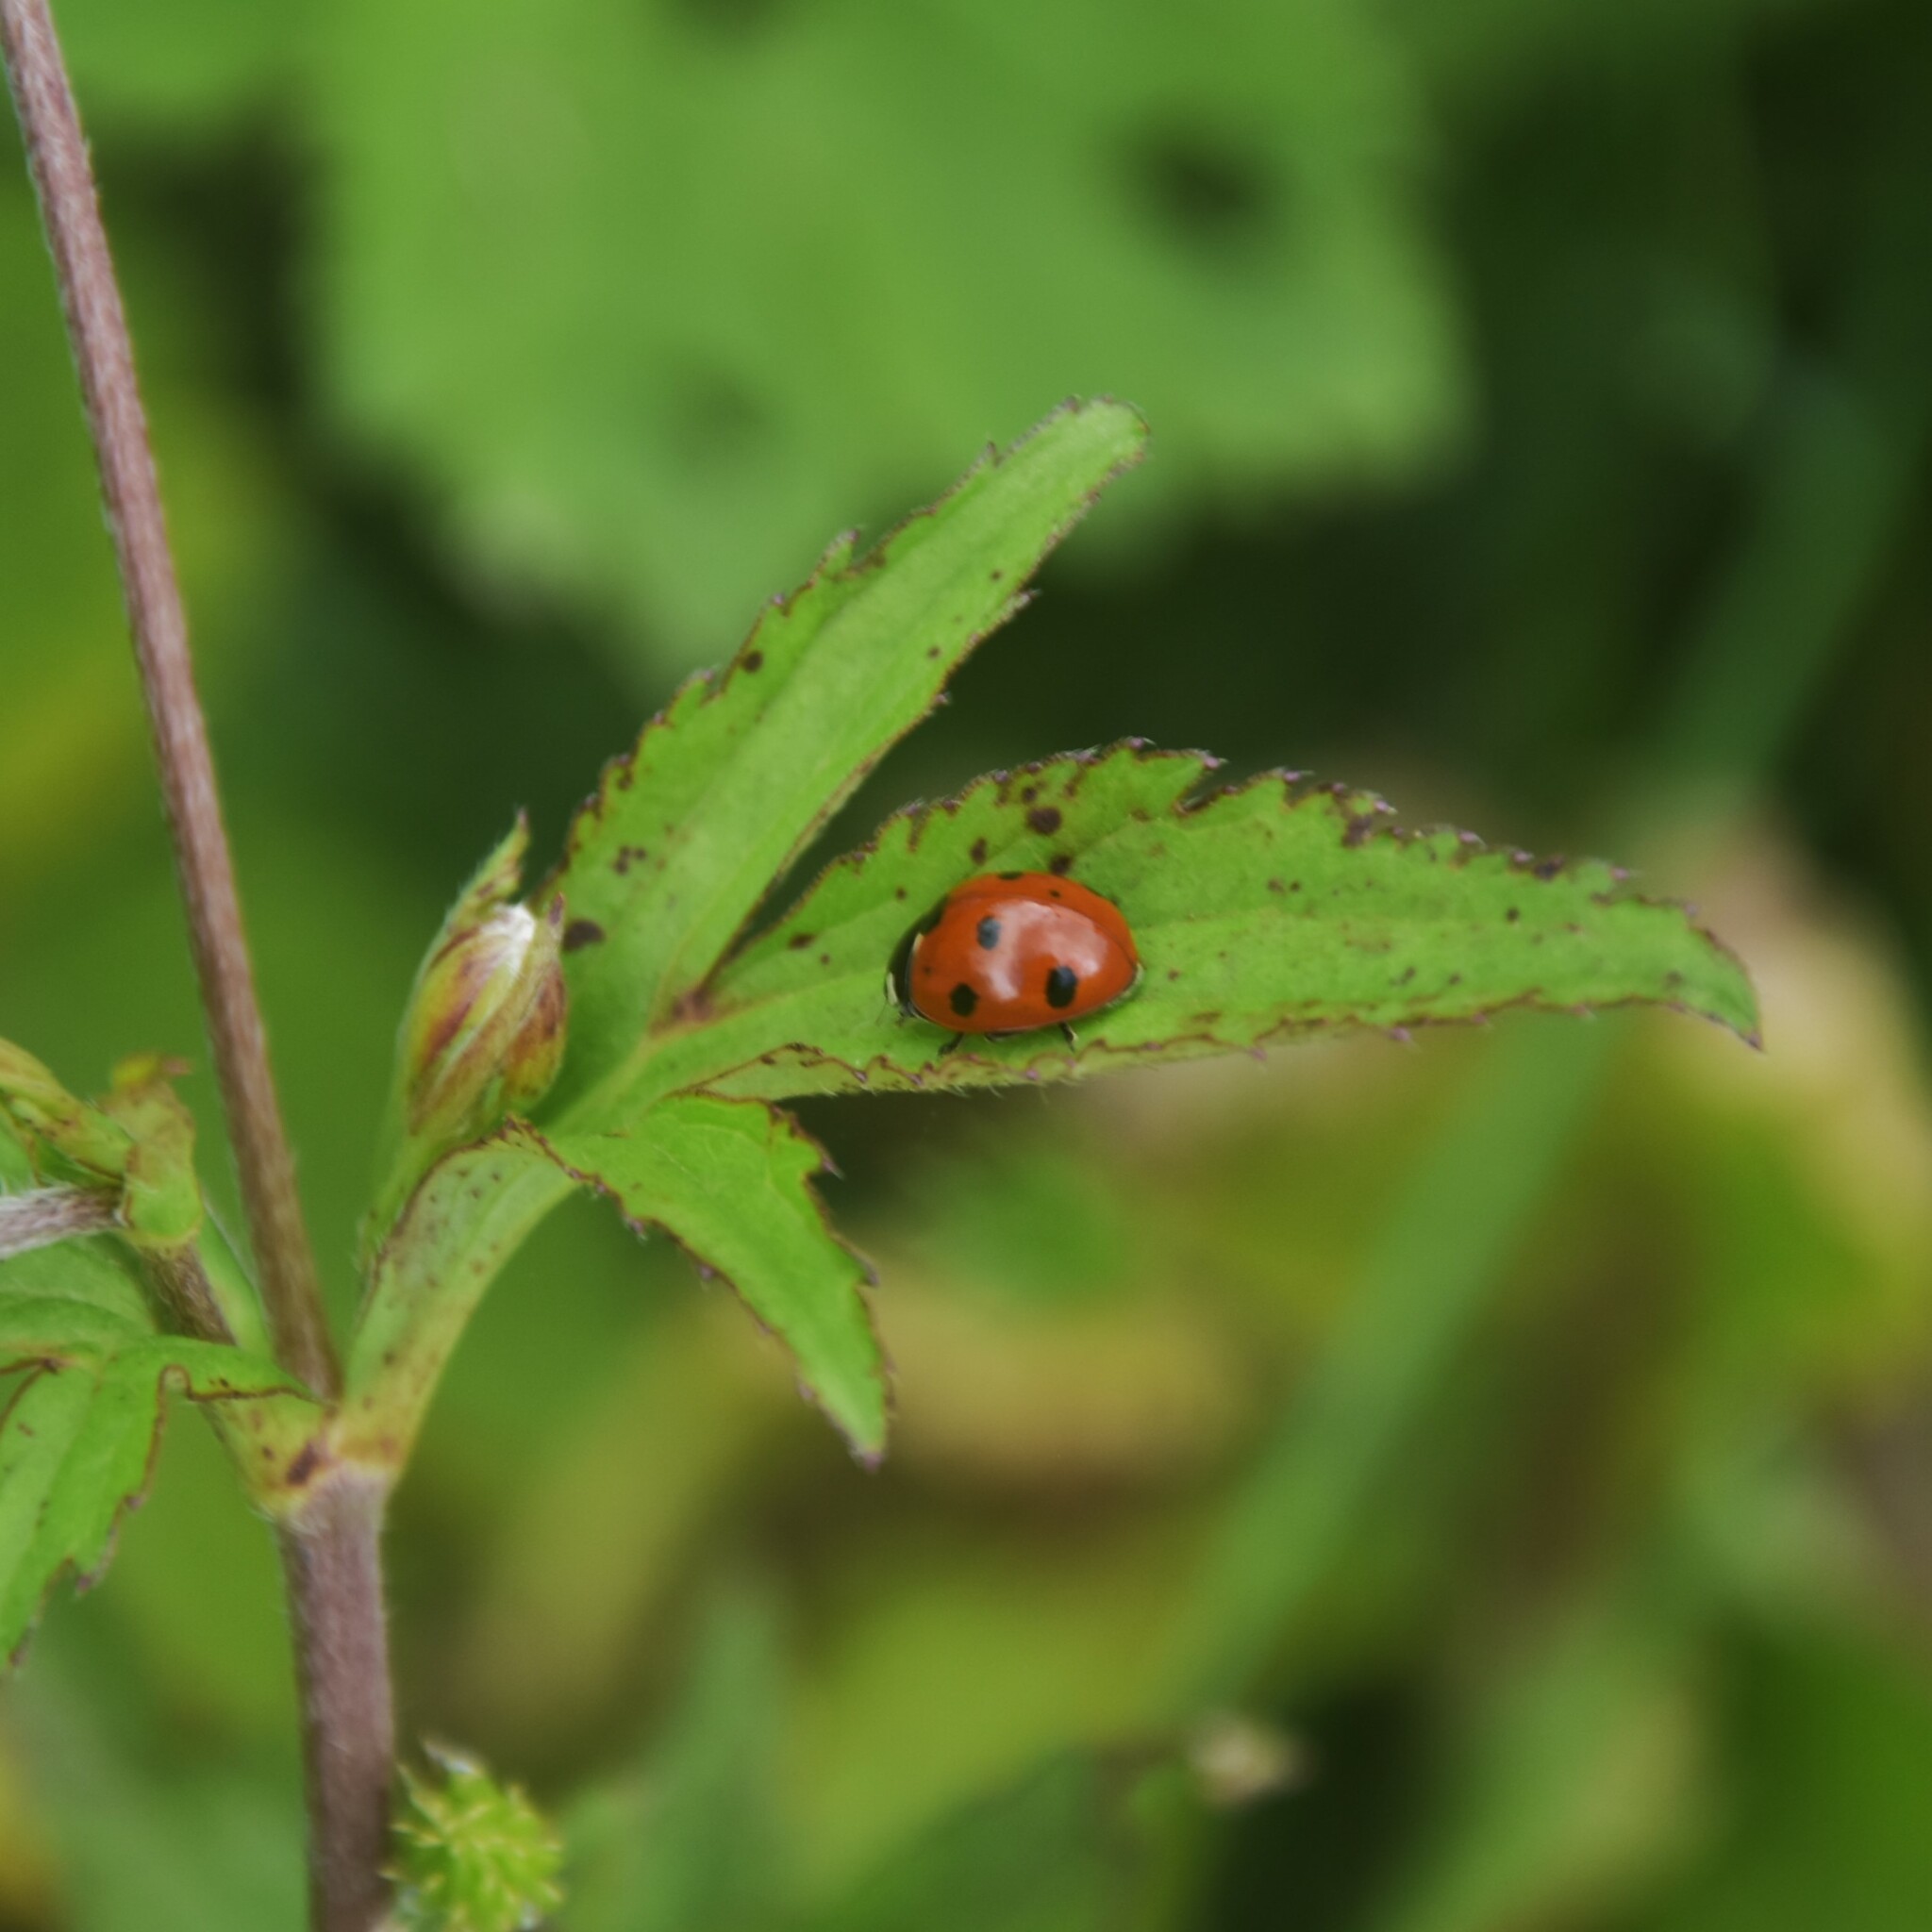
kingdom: Animalia
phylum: Arthropoda
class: Insecta
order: Coleoptera
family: Coccinellidae
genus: Coccinella
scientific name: Coccinella septempunctata
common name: Sevenspotted lady beetle
